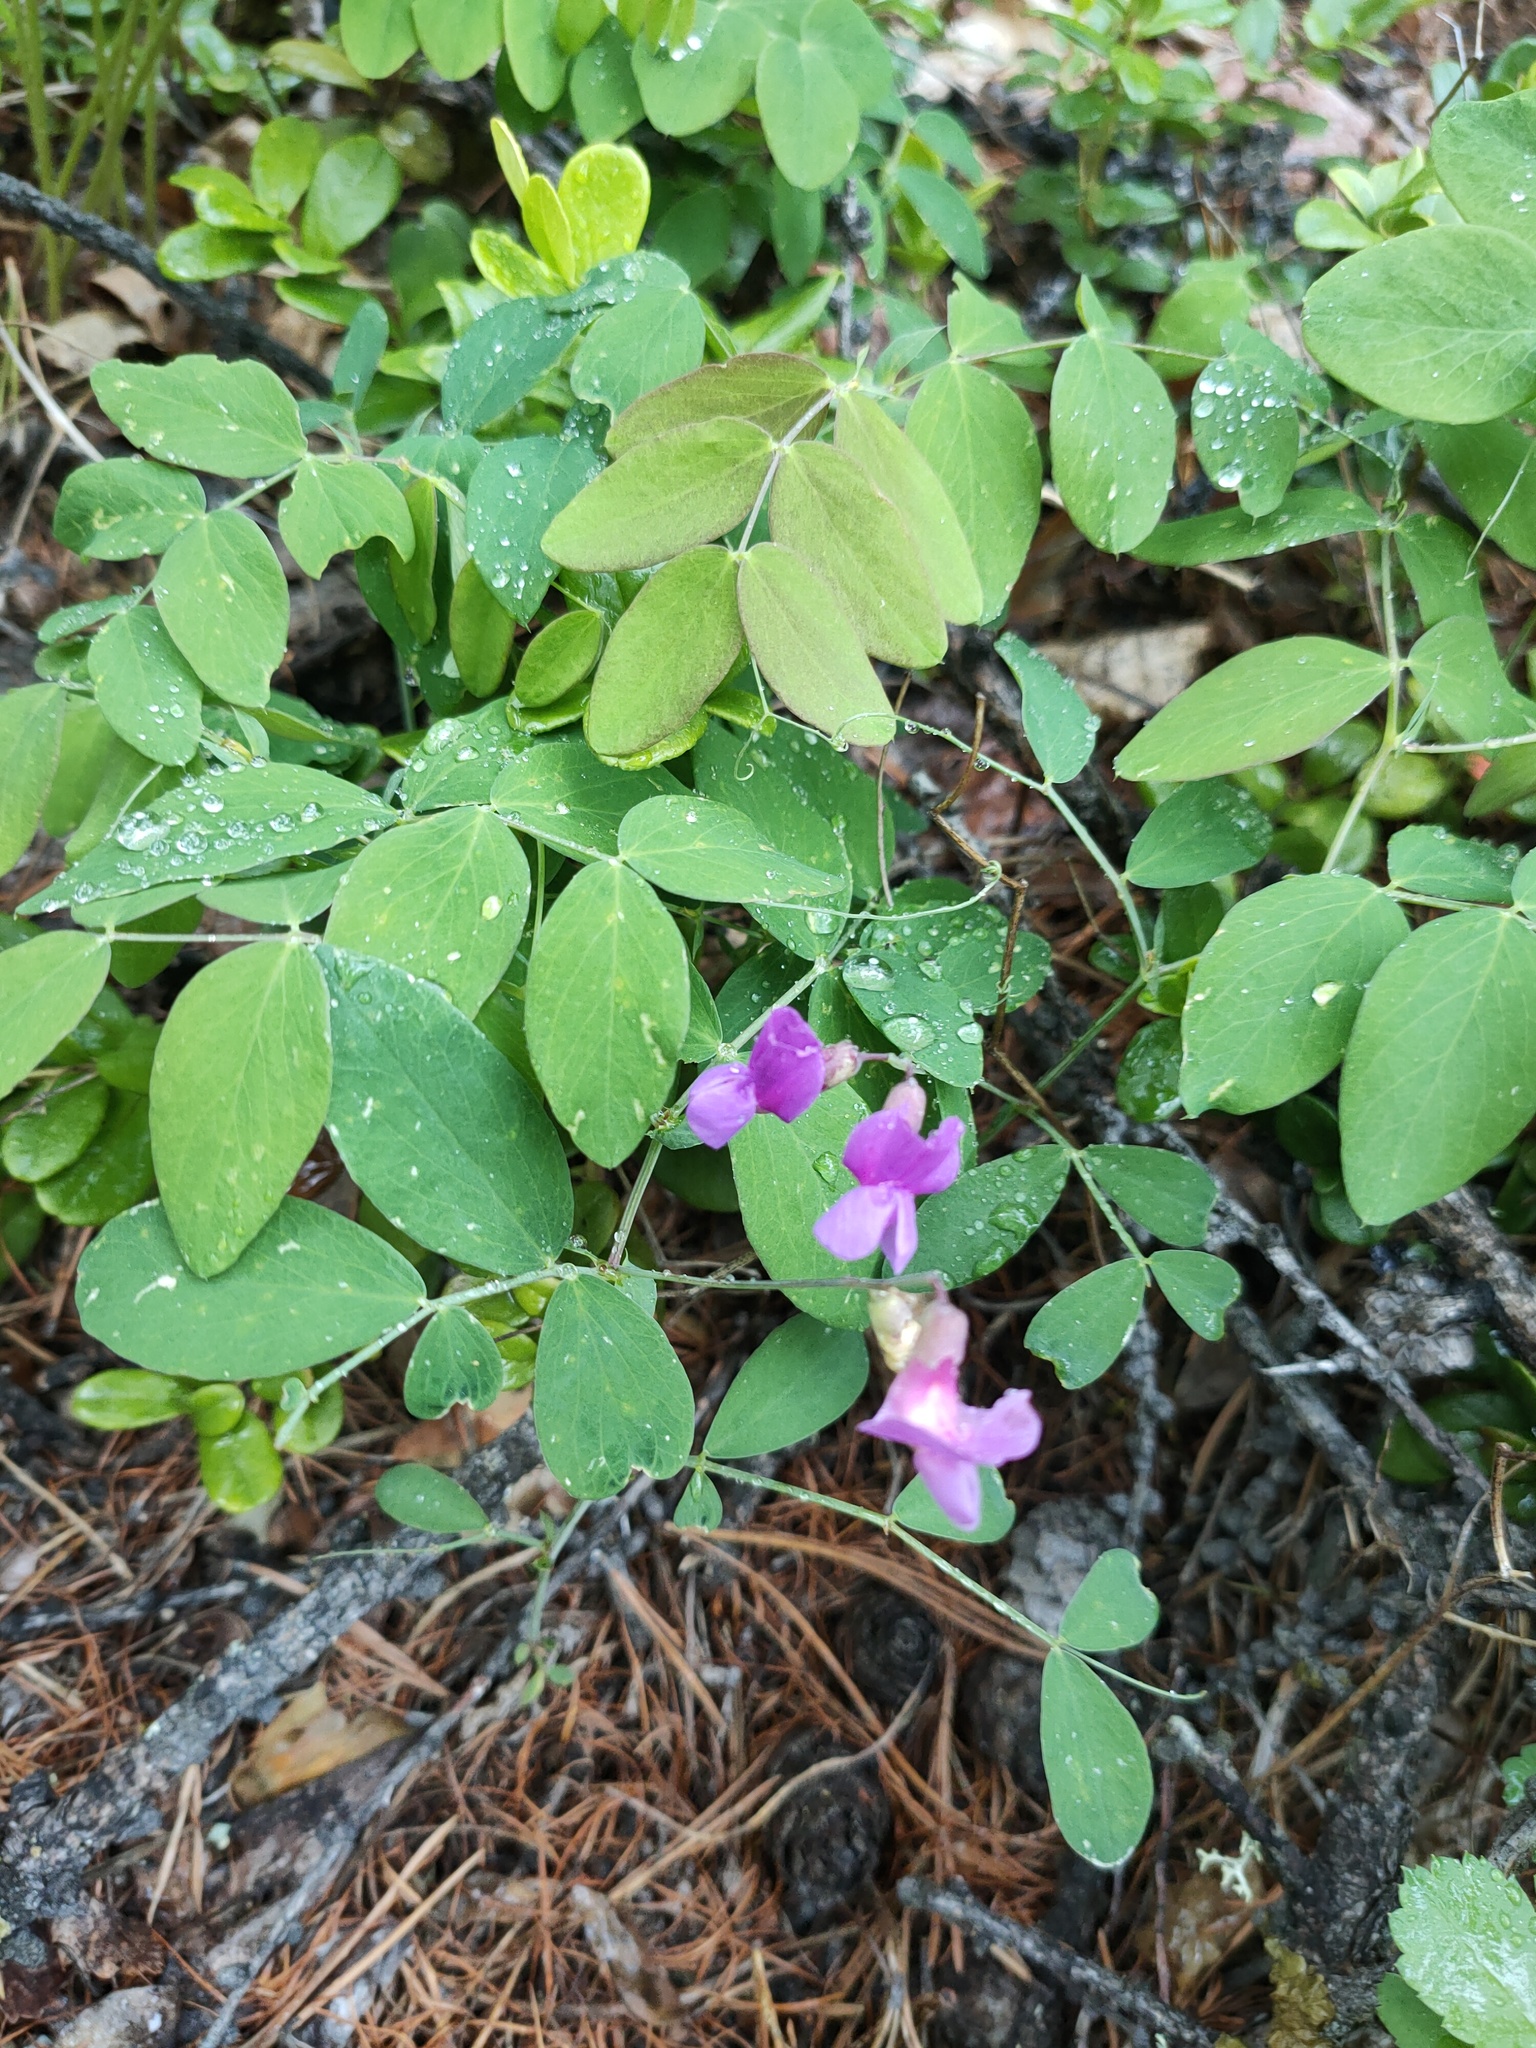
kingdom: Plantae
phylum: Tracheophyta
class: Magnoliopsida
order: Fabales
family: Fabaceae
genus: Lathyrus
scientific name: Lathyrus humilis
